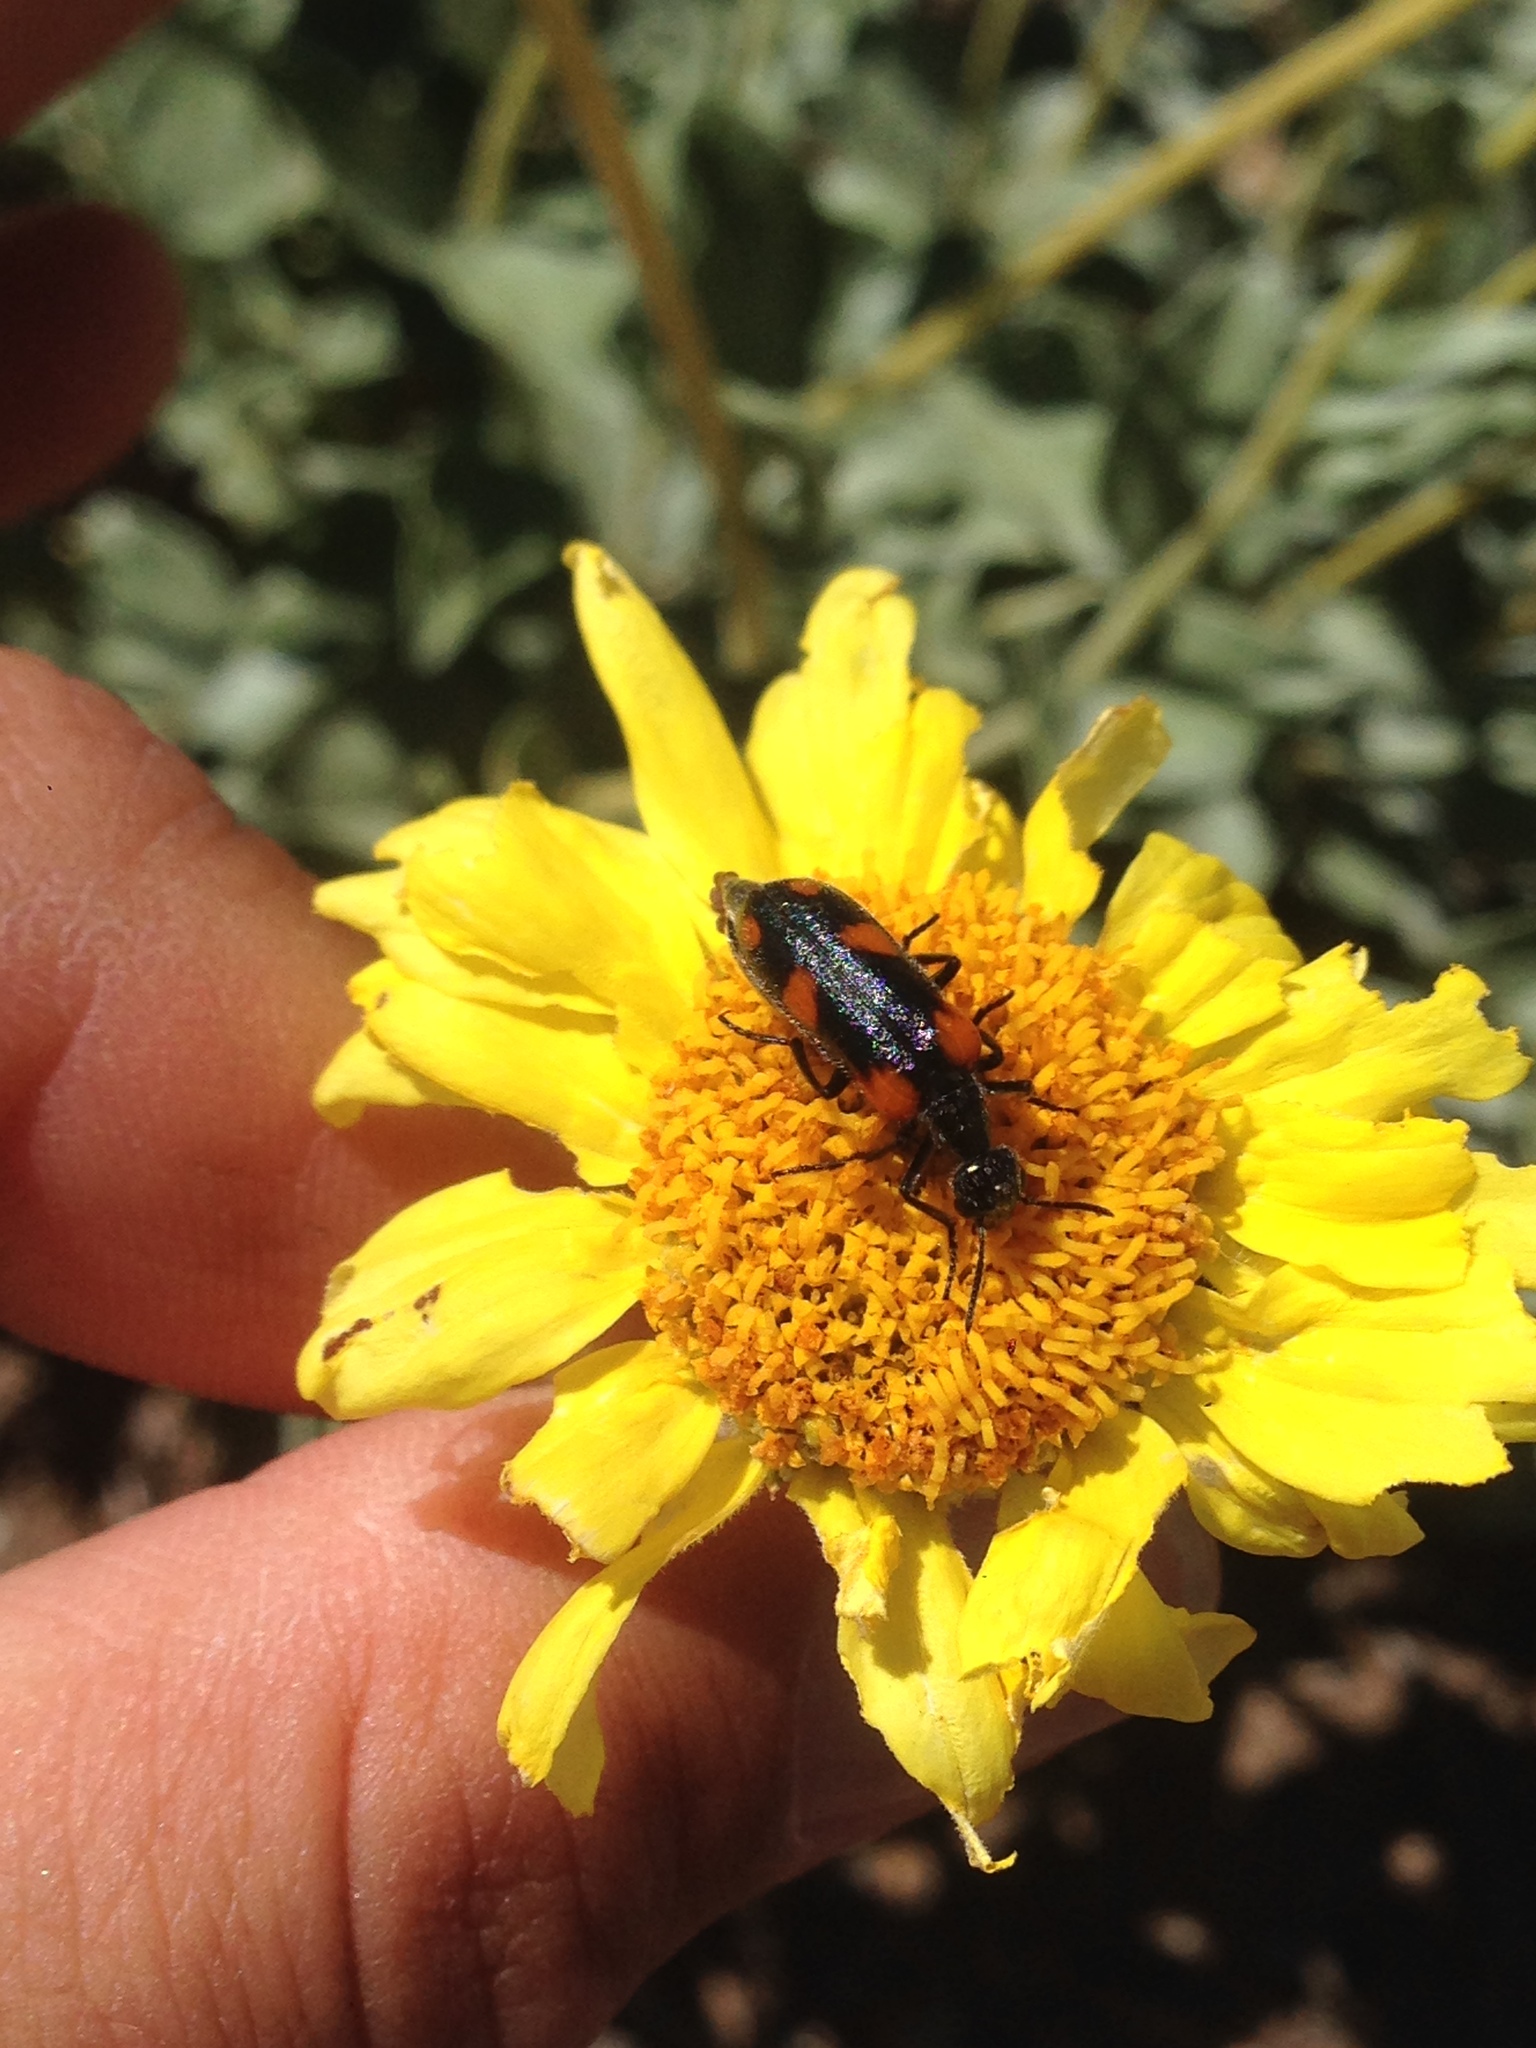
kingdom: Animalia
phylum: Arthropoda
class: Insecta
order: Coleoptera
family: Meloidae
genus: Eupompha
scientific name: Eupompha elegans
